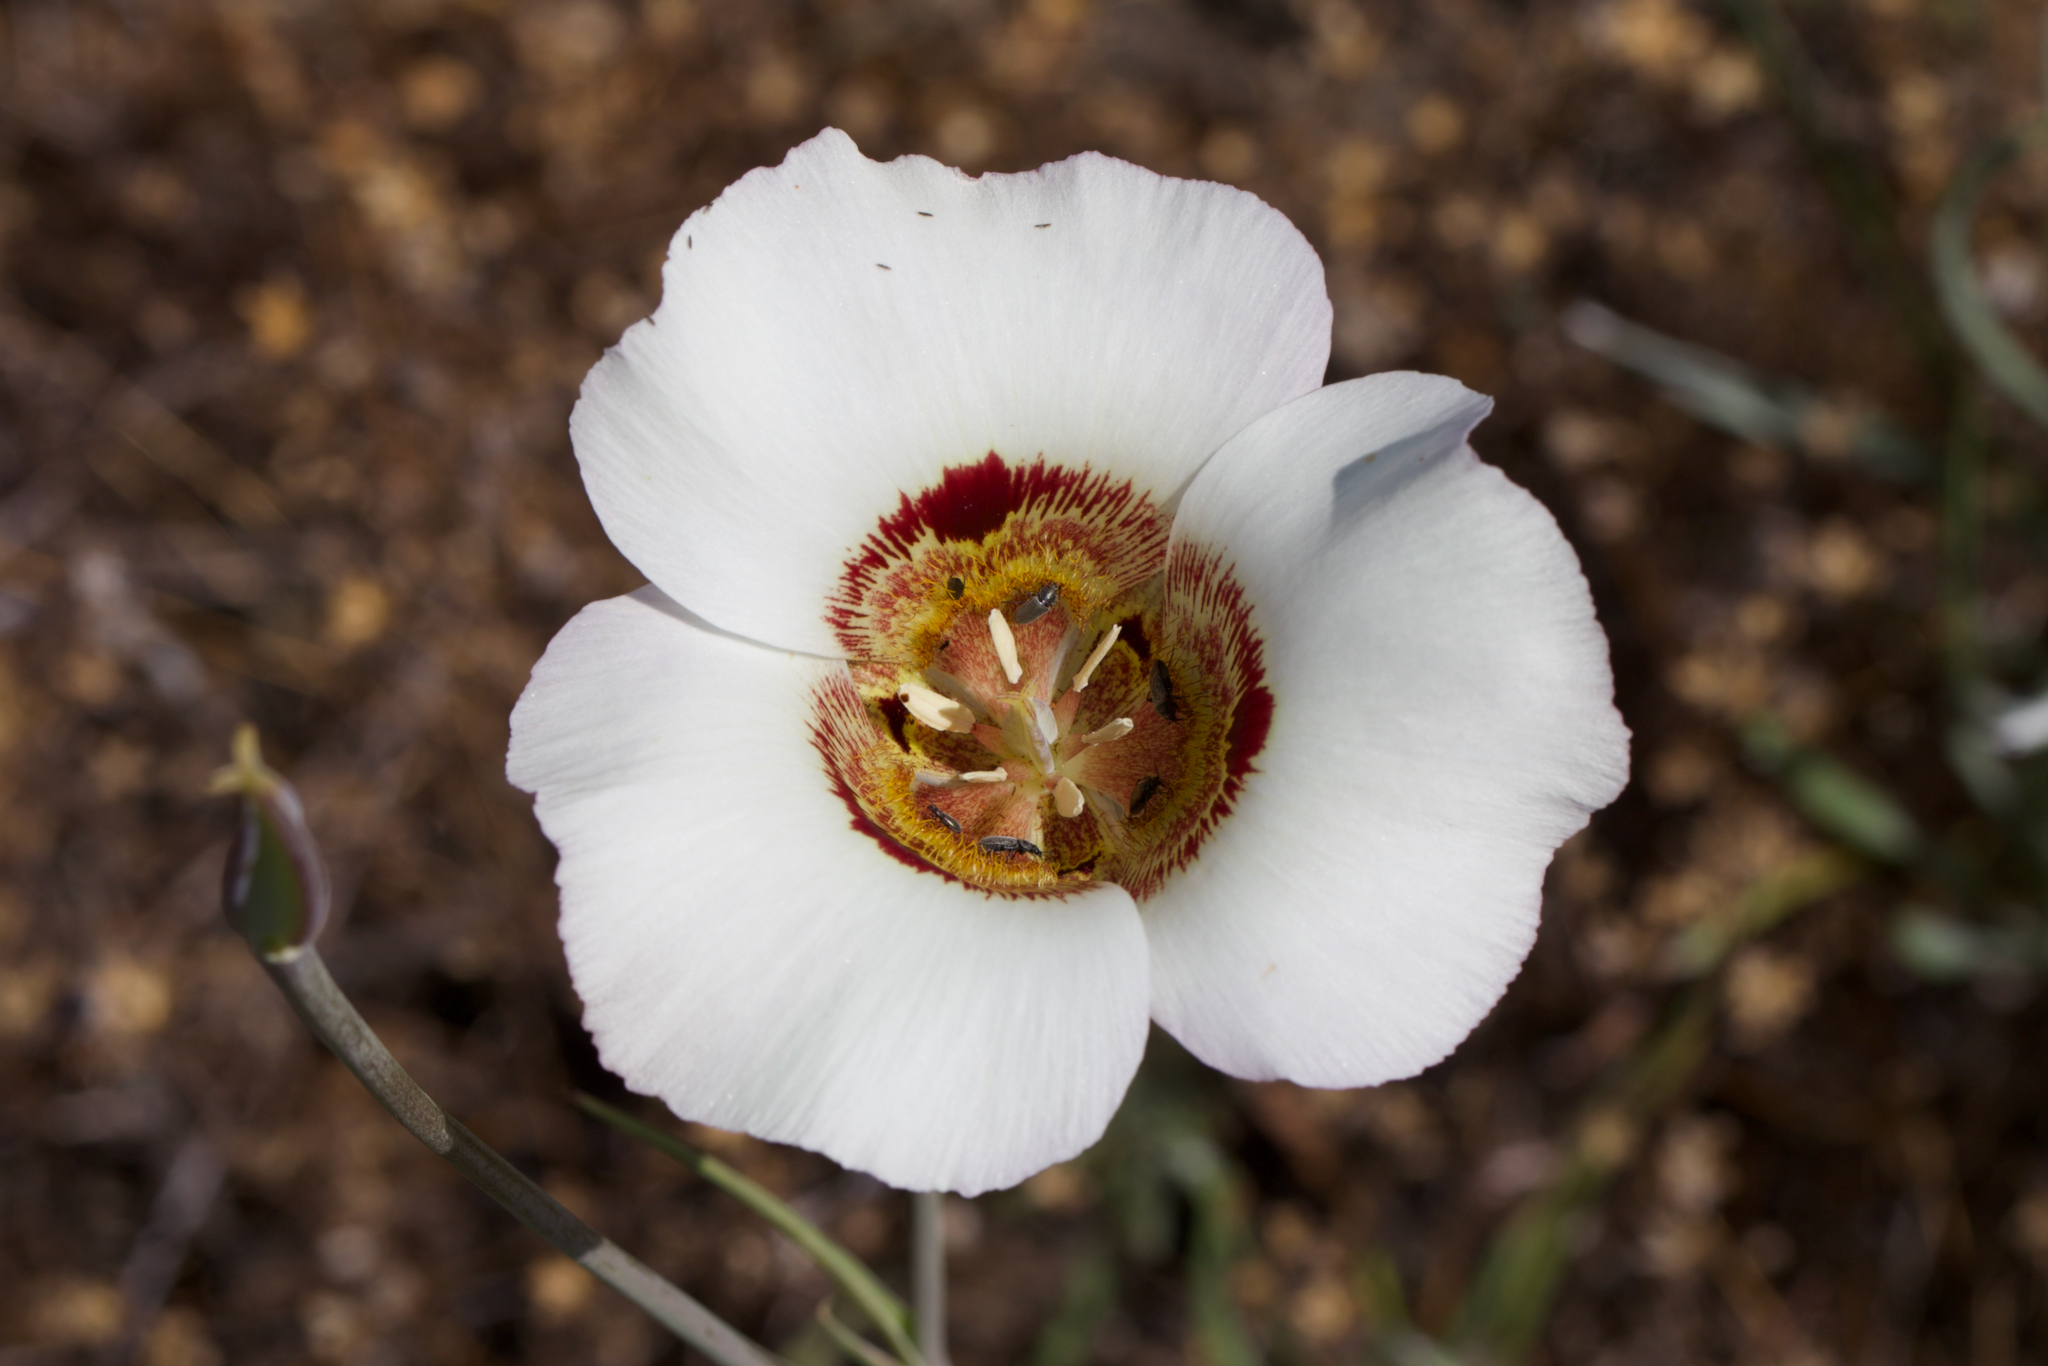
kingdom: Plantae
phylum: Tracheophyta
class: Liliopsida
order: Liliales
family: Liliaceae
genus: Calochortus
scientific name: Calochortus vestae
